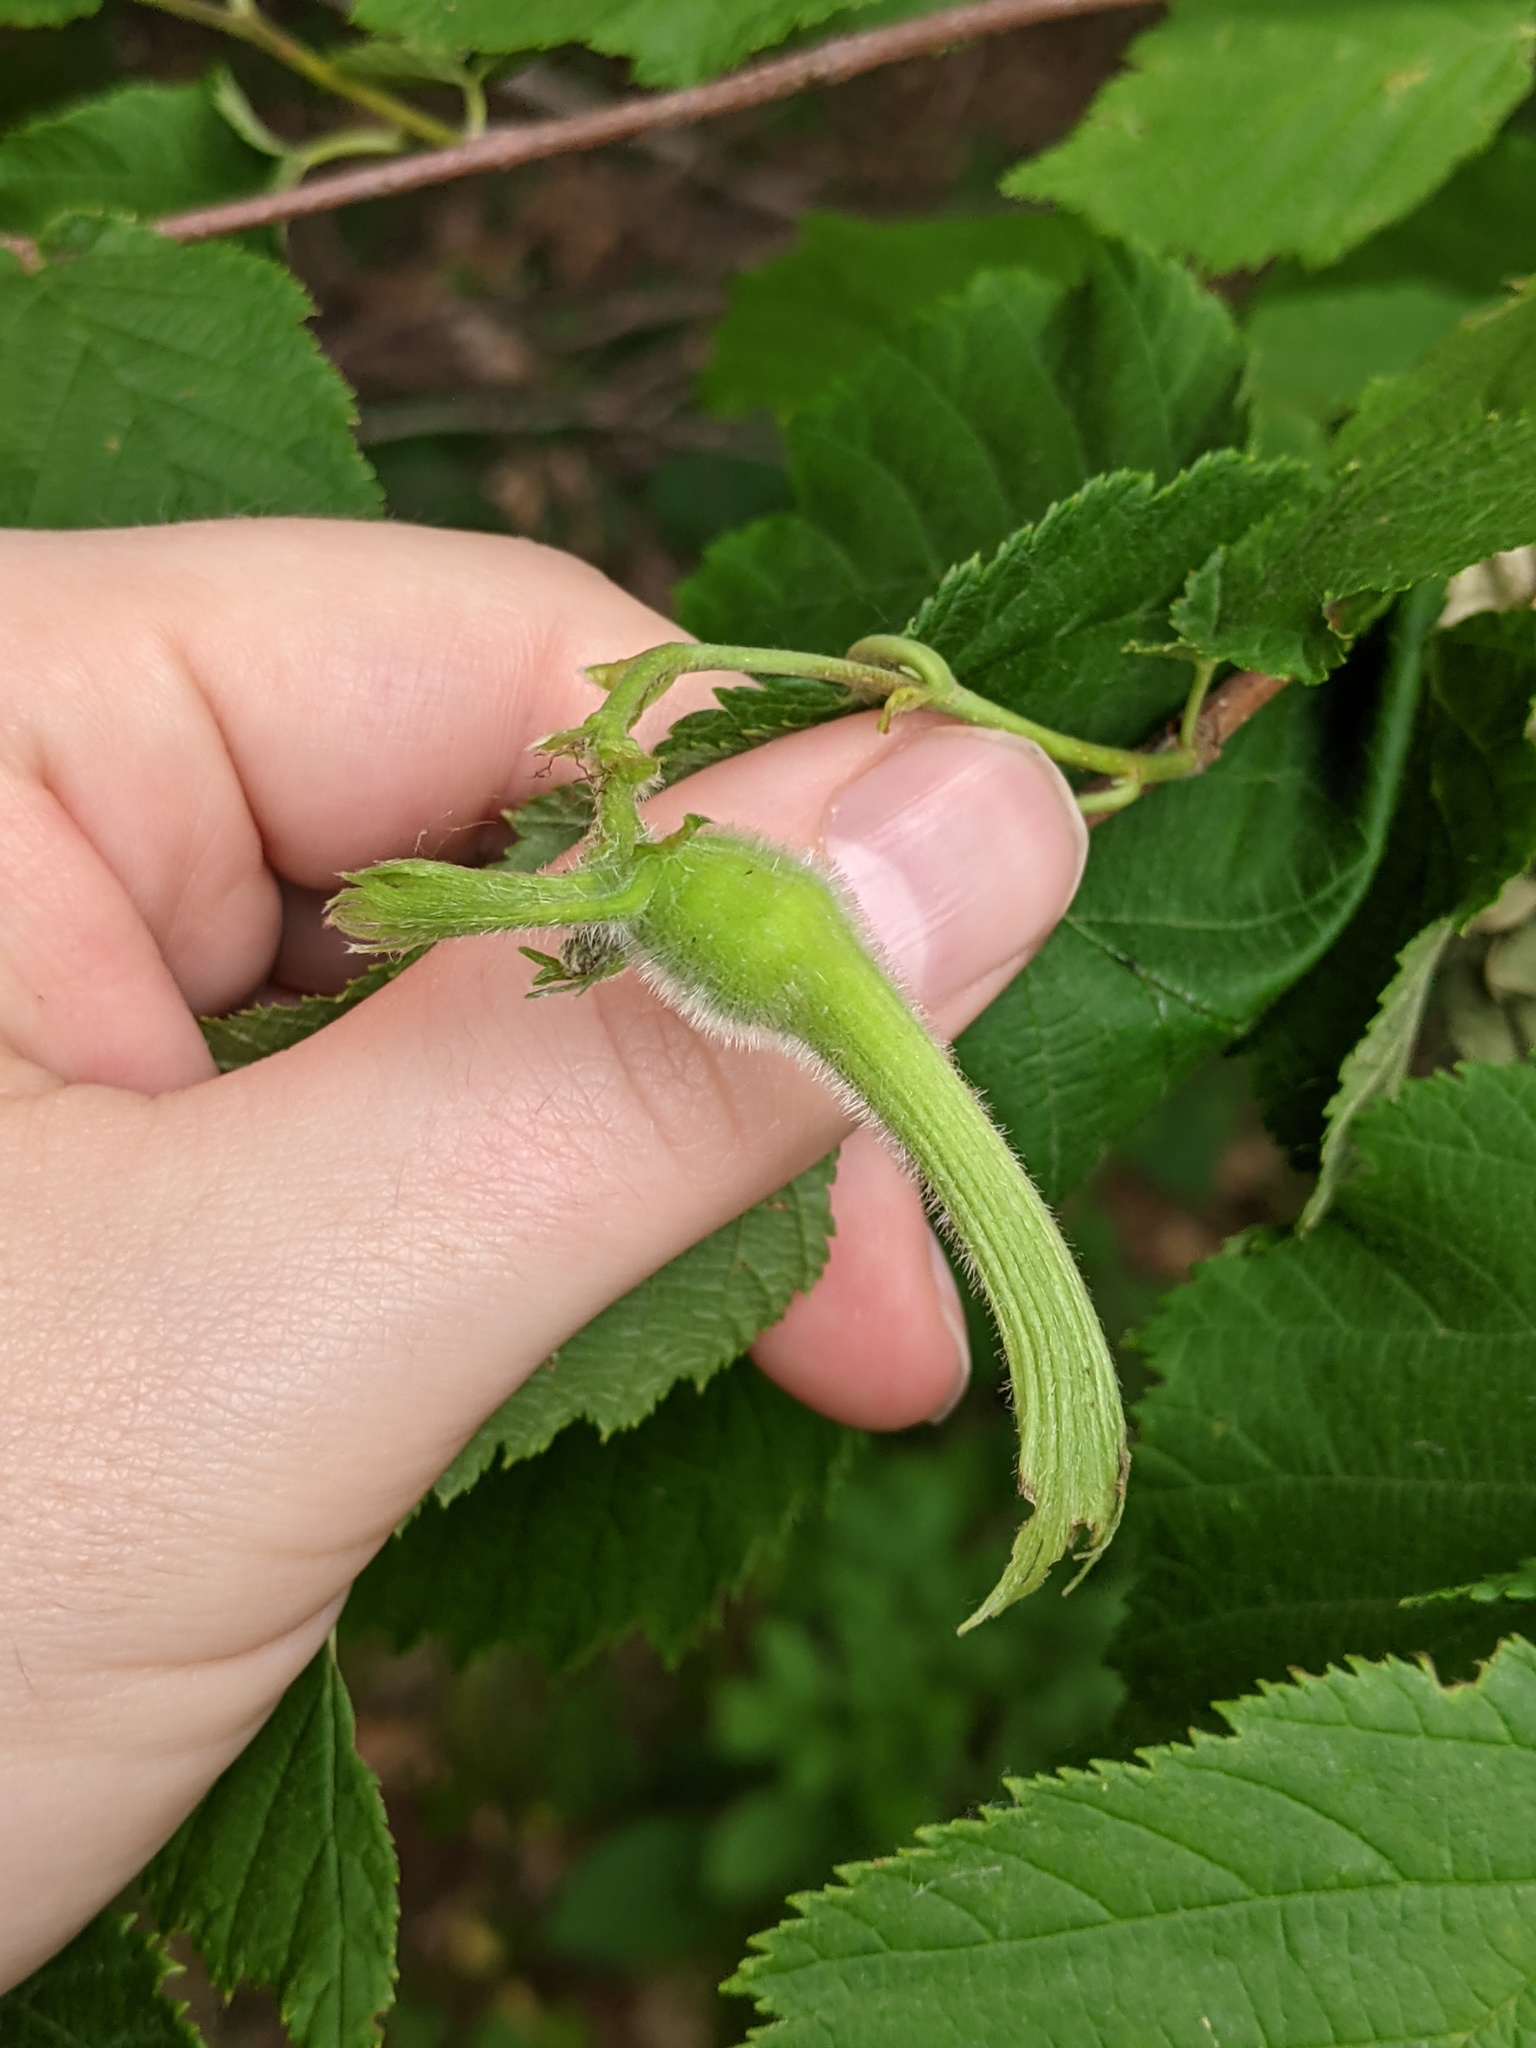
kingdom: Plantae
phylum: Tracheophyta
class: Magnoliopsida
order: Fagales
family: Betulaceae
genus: Corylus
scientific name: Corylus cornuta
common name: Beaked hazel
